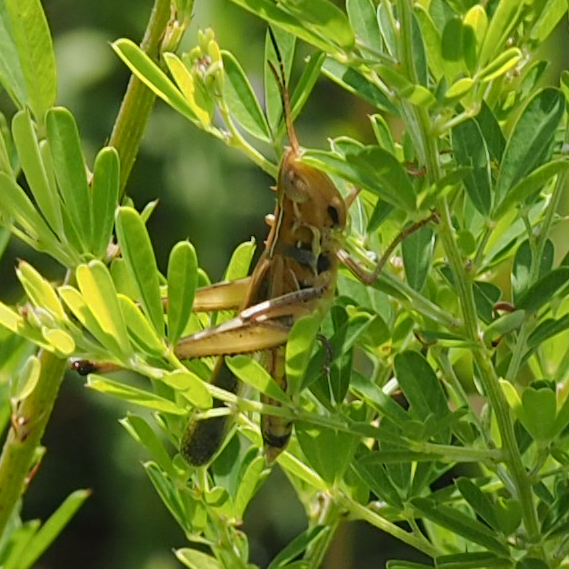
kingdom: Animalia
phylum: Arthropoda
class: Insecta
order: Orthoptera
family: Acrididae
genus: Syrbula
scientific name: Syrbula admirabilis
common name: Handsome grasshopper
